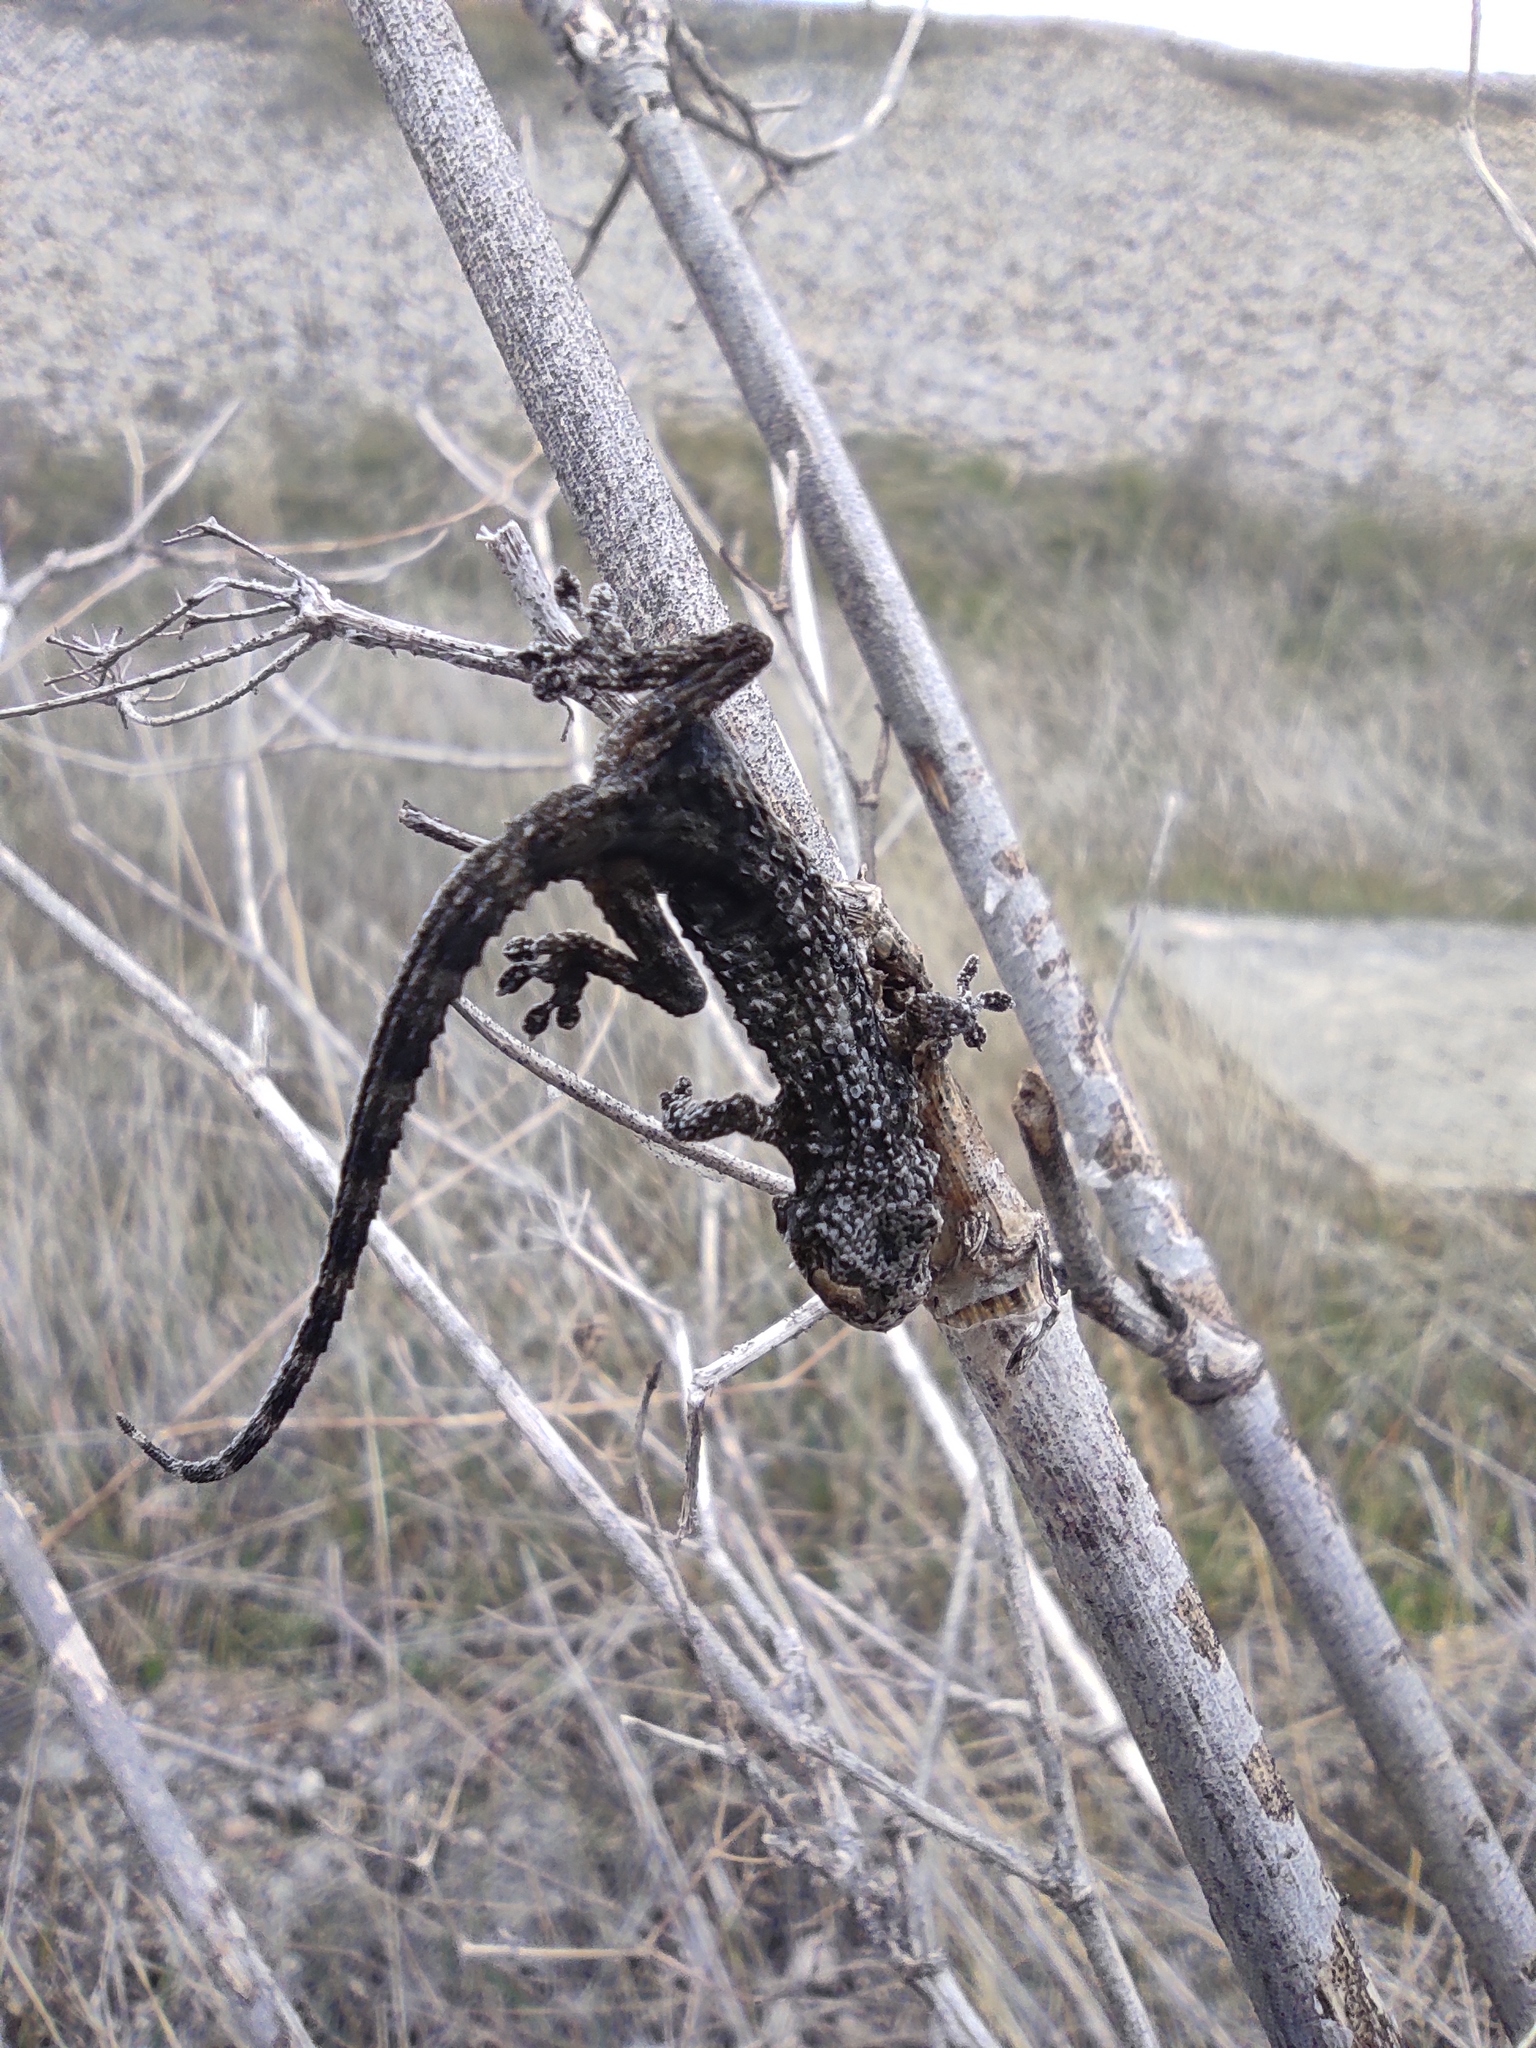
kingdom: Animalia
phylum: Chordata
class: Squamata
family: Phyllodactylidae
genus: Tarentola
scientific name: Tarentola mauritanica
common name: Moorish gecko
